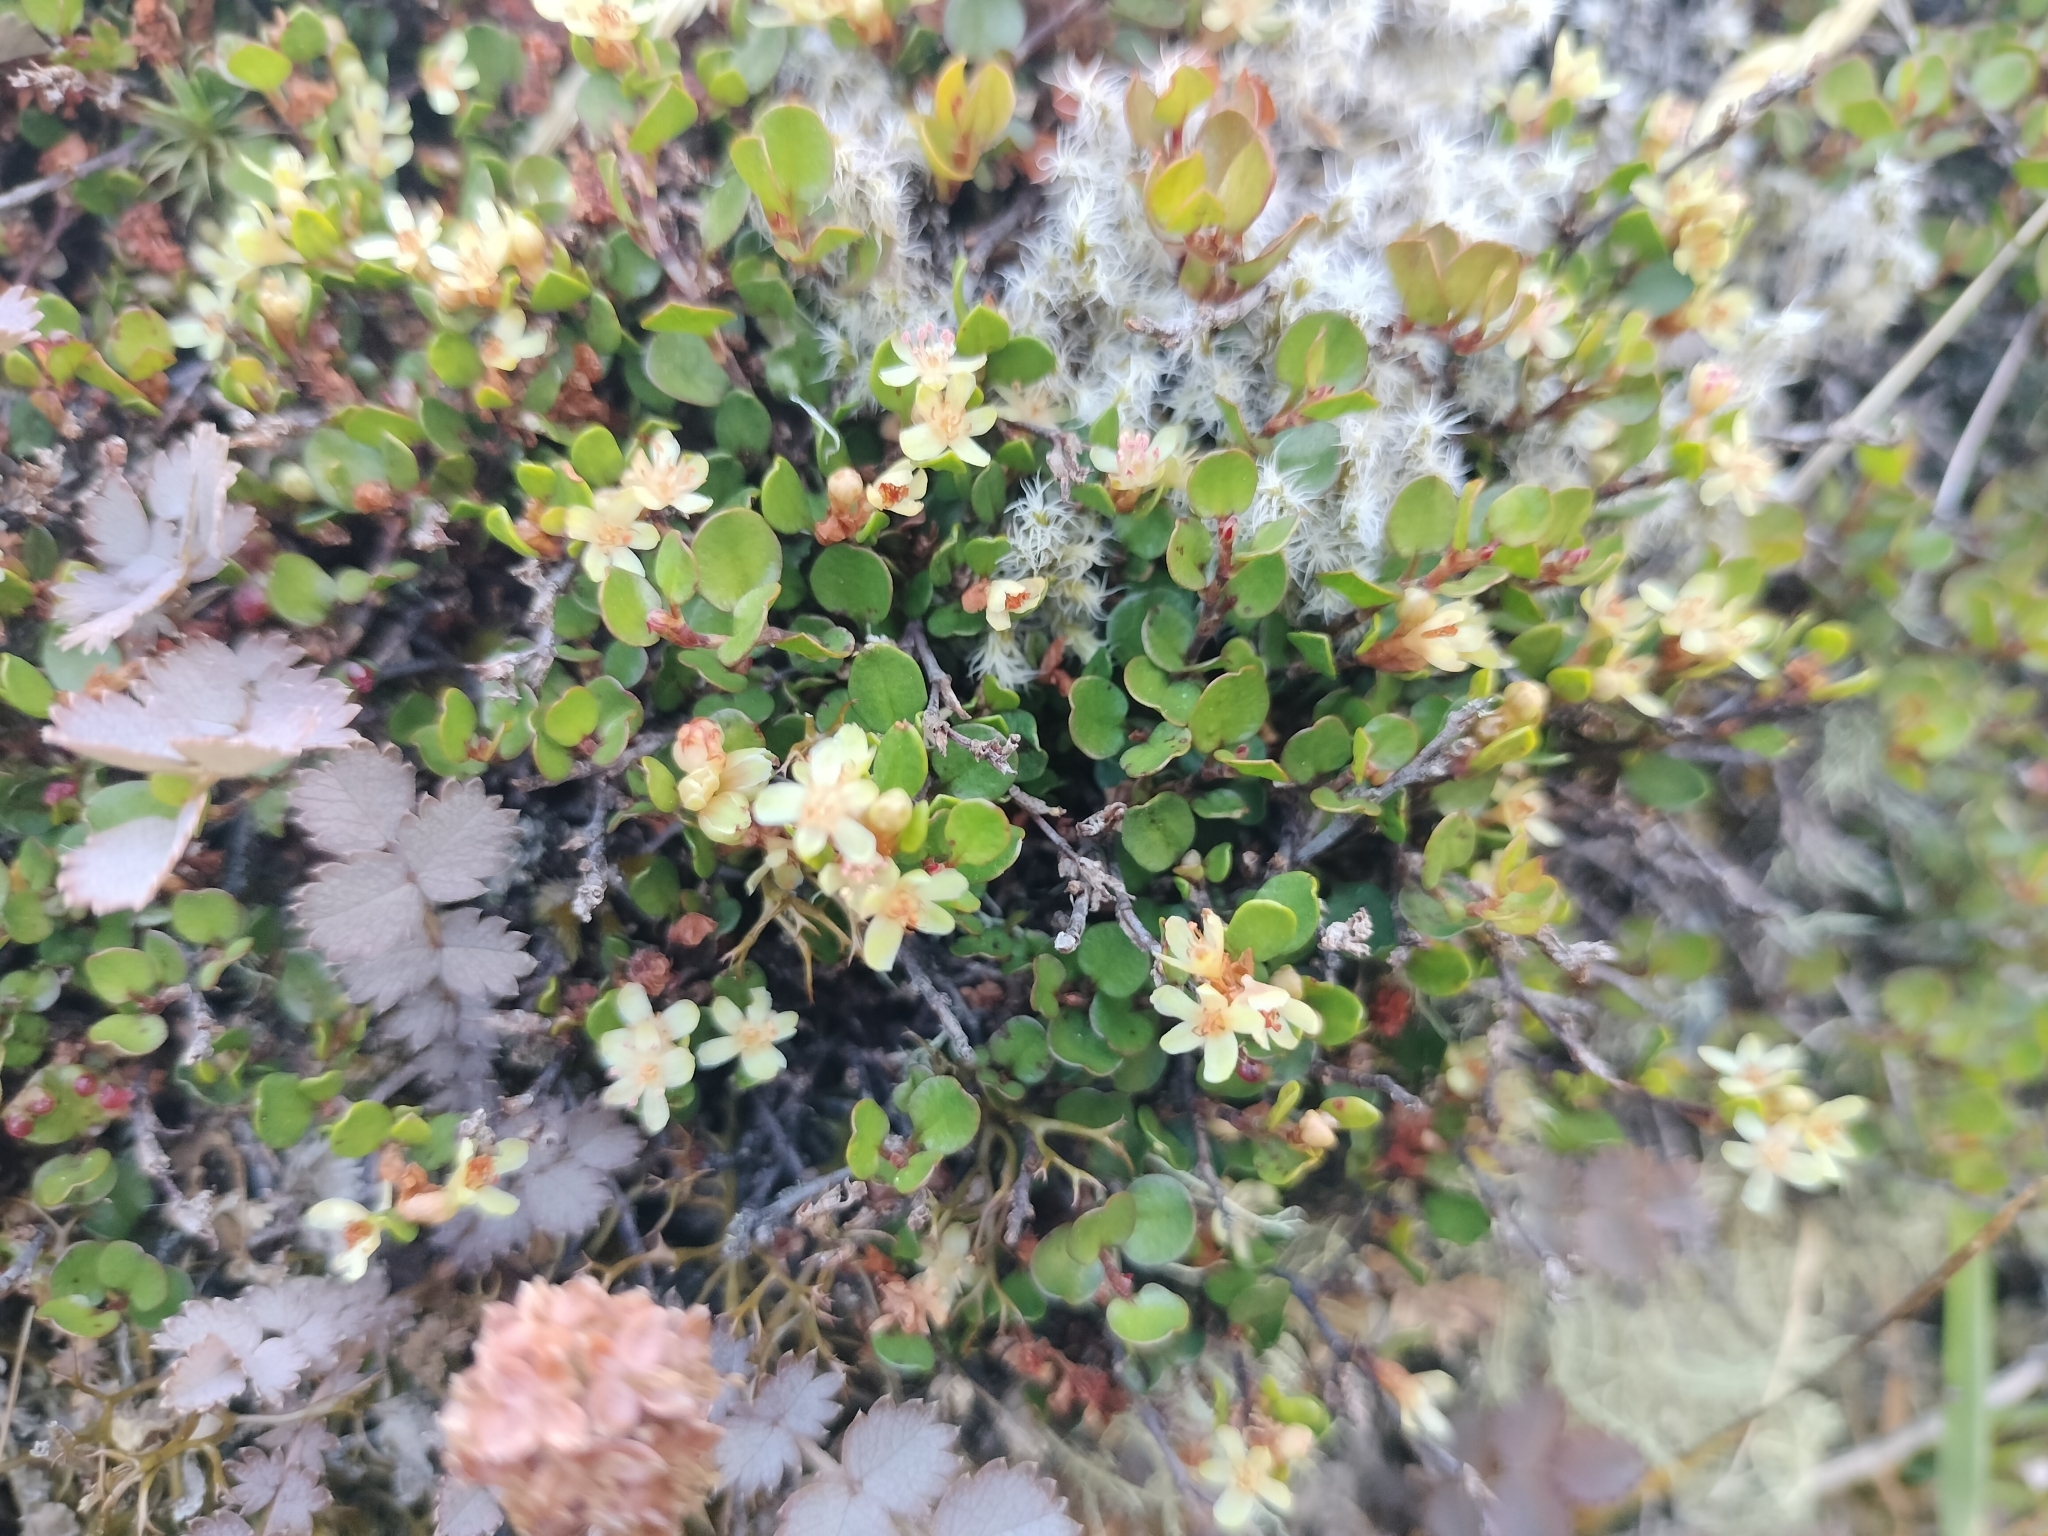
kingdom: Plantae
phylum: Tracheophyta
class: Magnoliopsida
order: Caryophyllales
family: Polygonaceae
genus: Muehlenbeckia
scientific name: Muehlenbeckia axillaris
